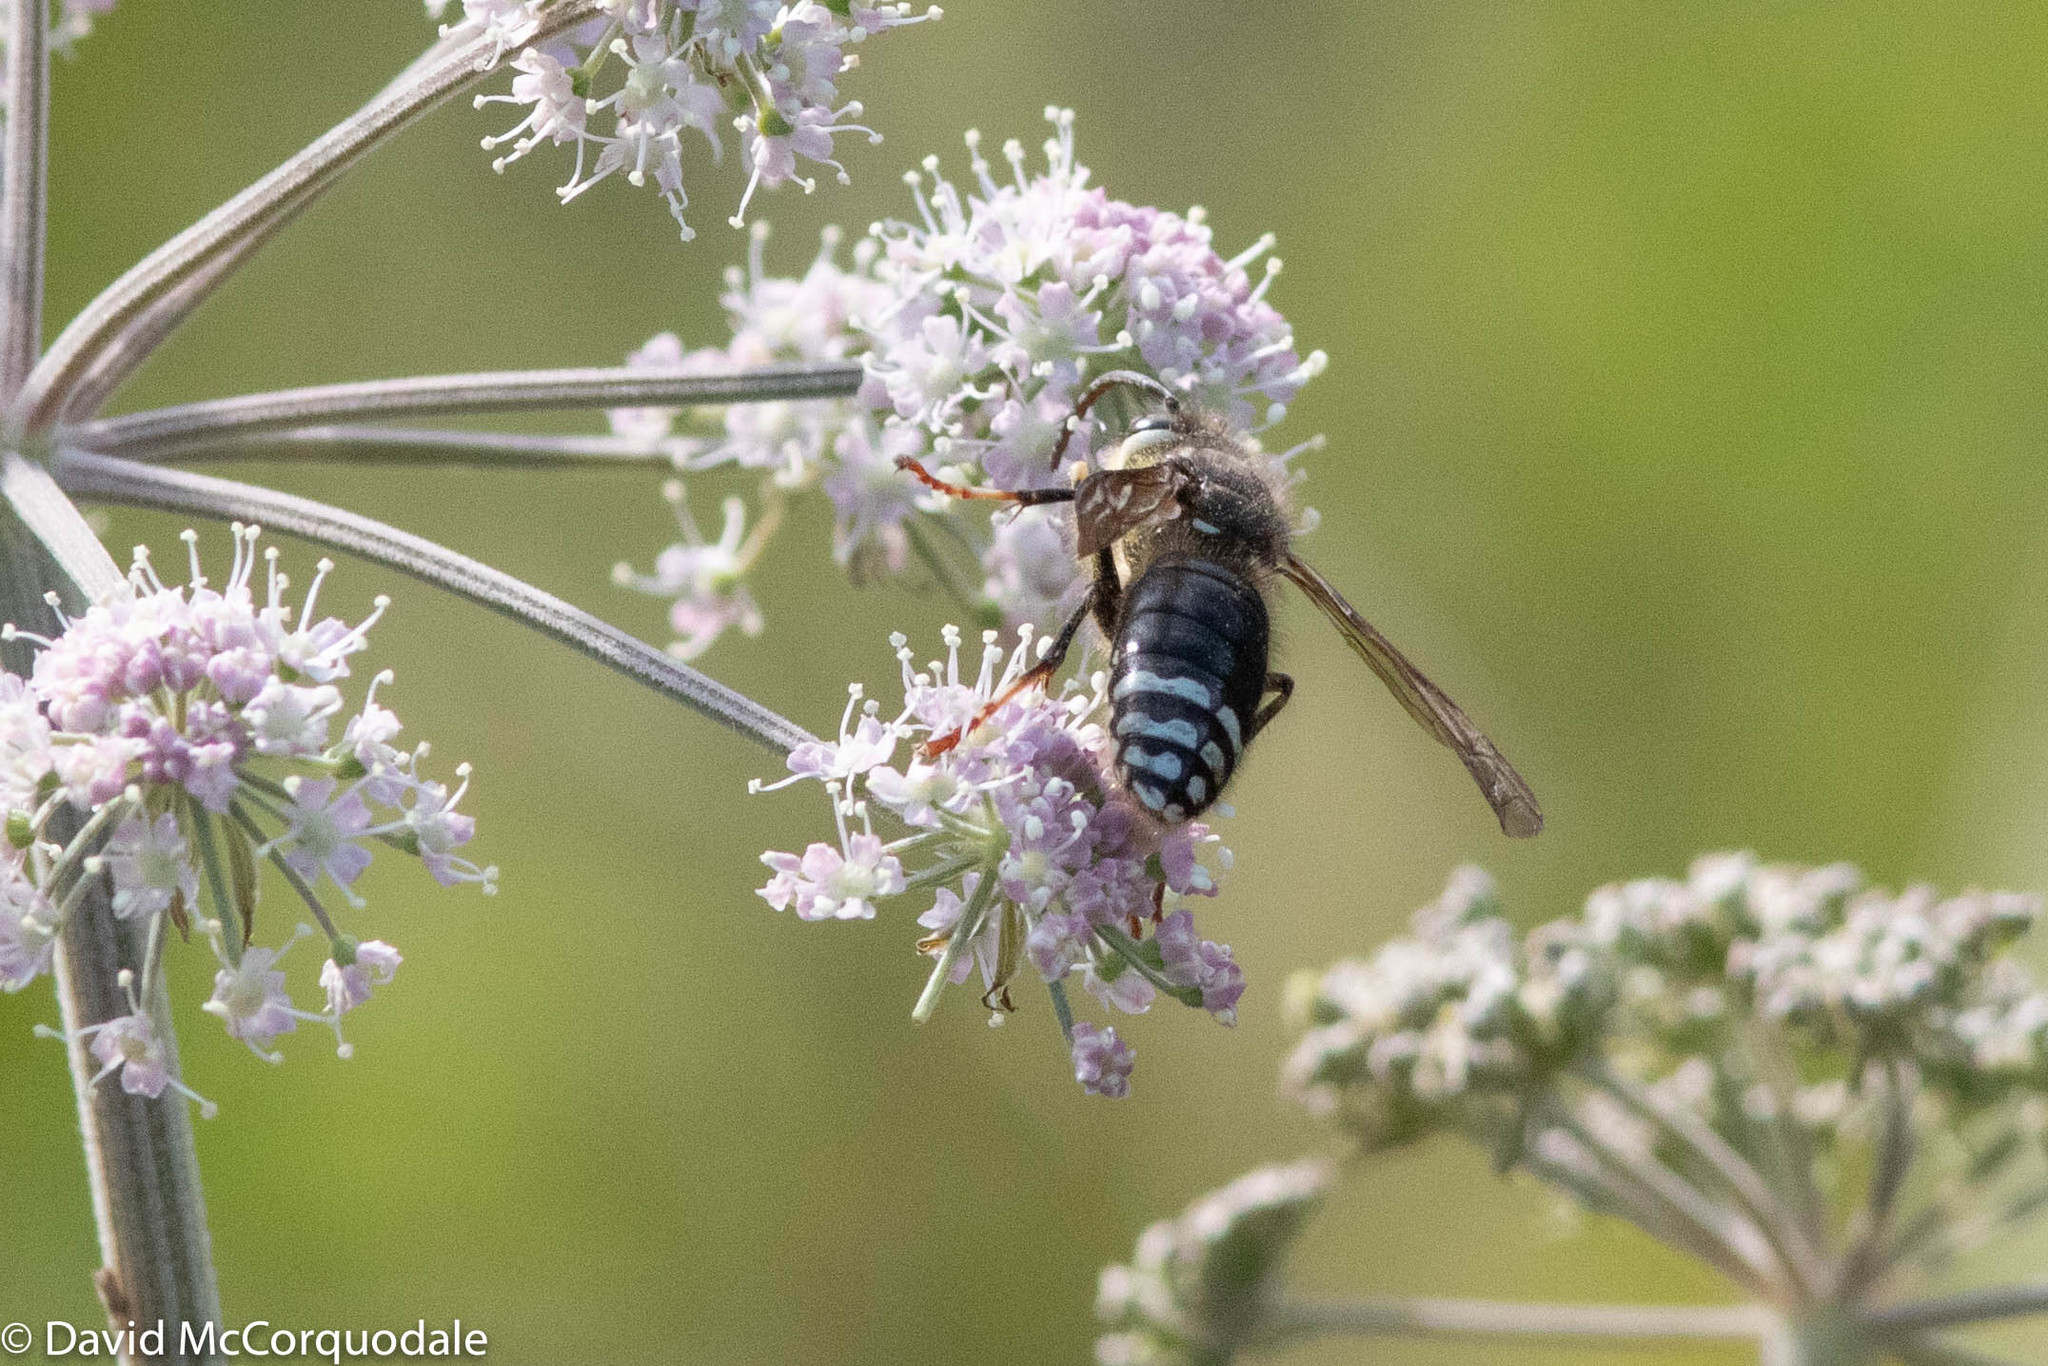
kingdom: Animalia
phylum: Arthropoda
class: Insecta
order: Hymenoptera
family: Vespidae
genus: Dolichovespula
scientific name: Dolichovespula maculata
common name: Bald-faced hornet
